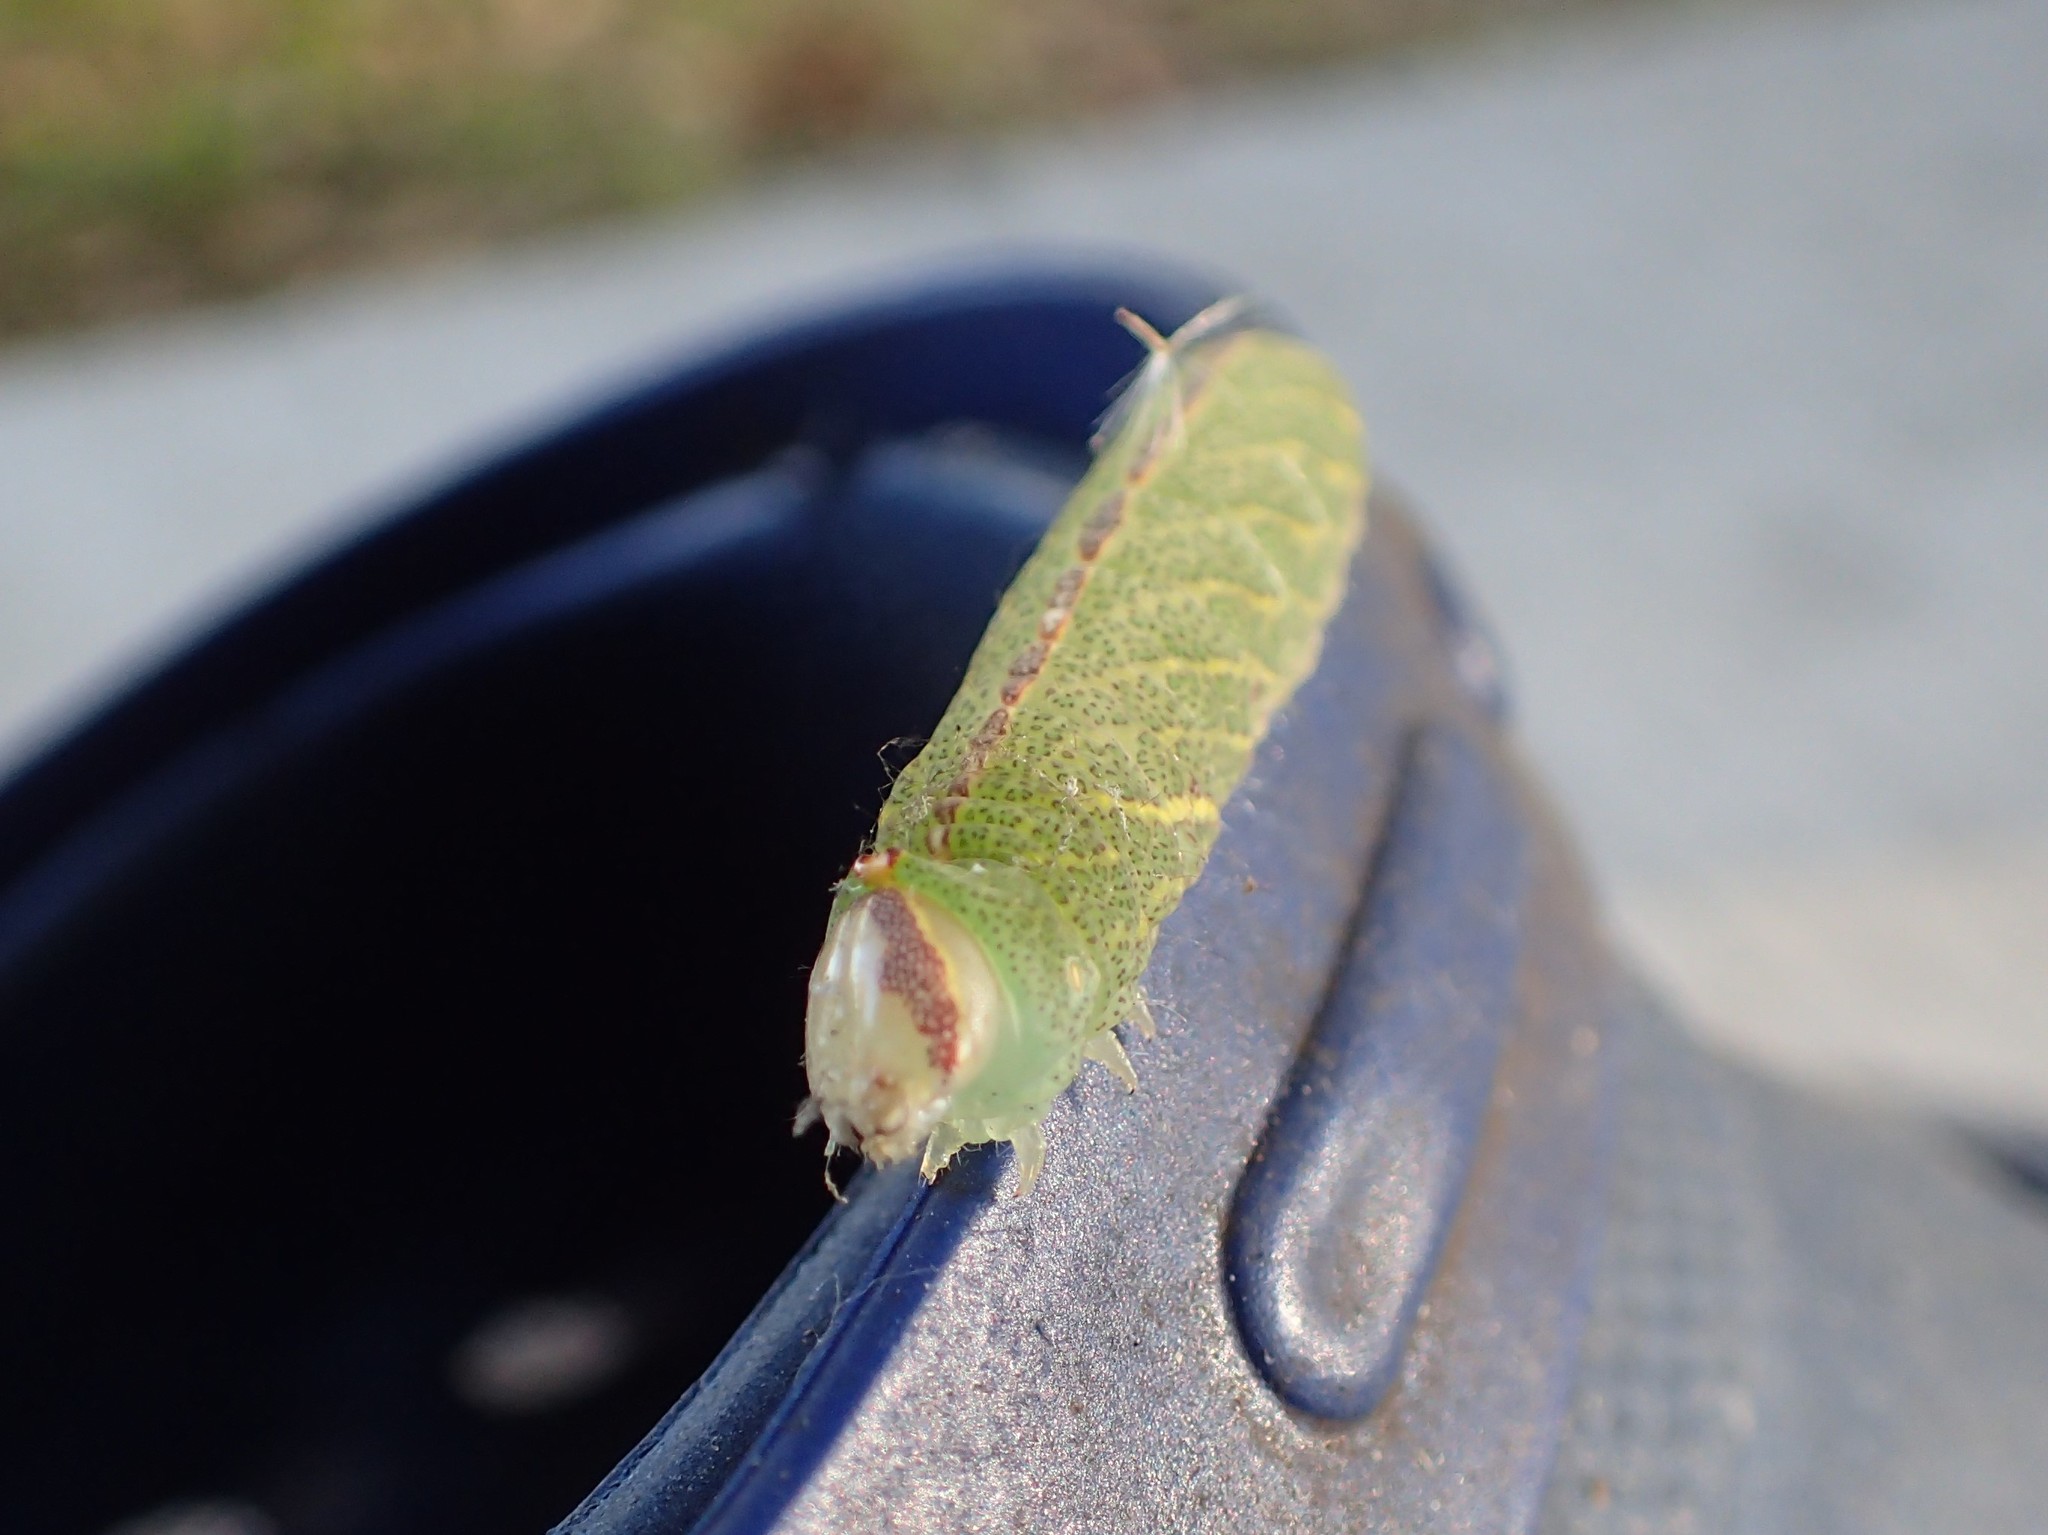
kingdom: Animalia
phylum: Arthropoda
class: Insecta
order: Lepidoptera
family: Notodontidae
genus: Macrurocampa
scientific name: Macrurocampa marthesia
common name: Mottled prominent
